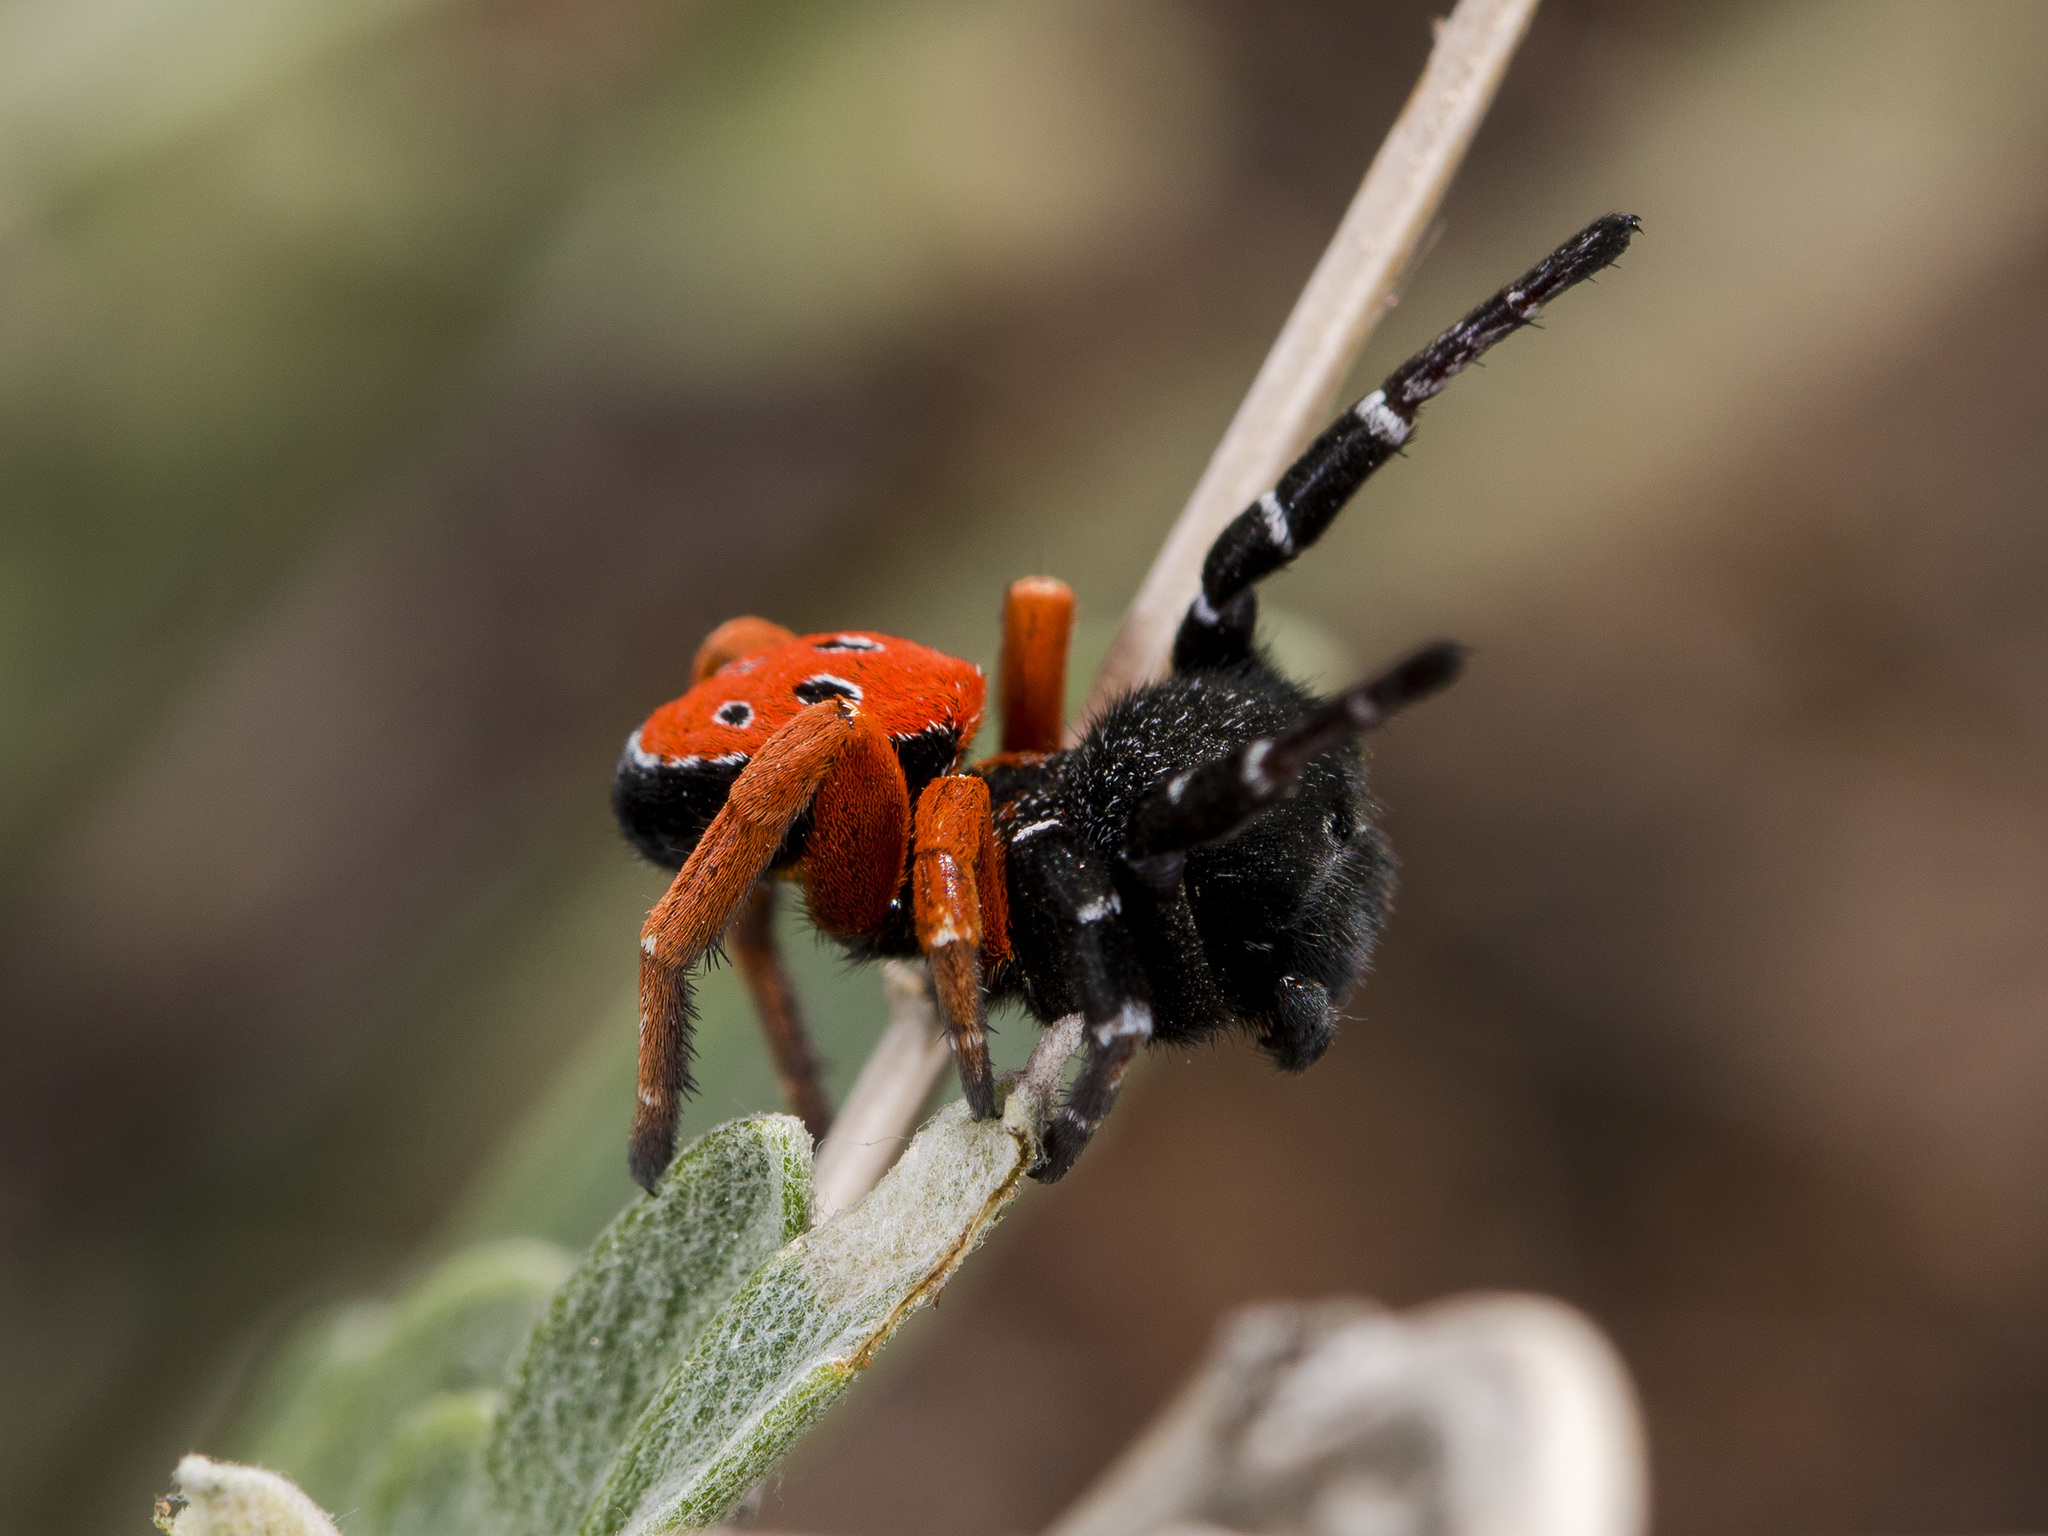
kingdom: Animalia
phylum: Arthropoda
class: Arachnida
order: Araneae
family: Eresidae
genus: Eresus
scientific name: Eresus kollari
